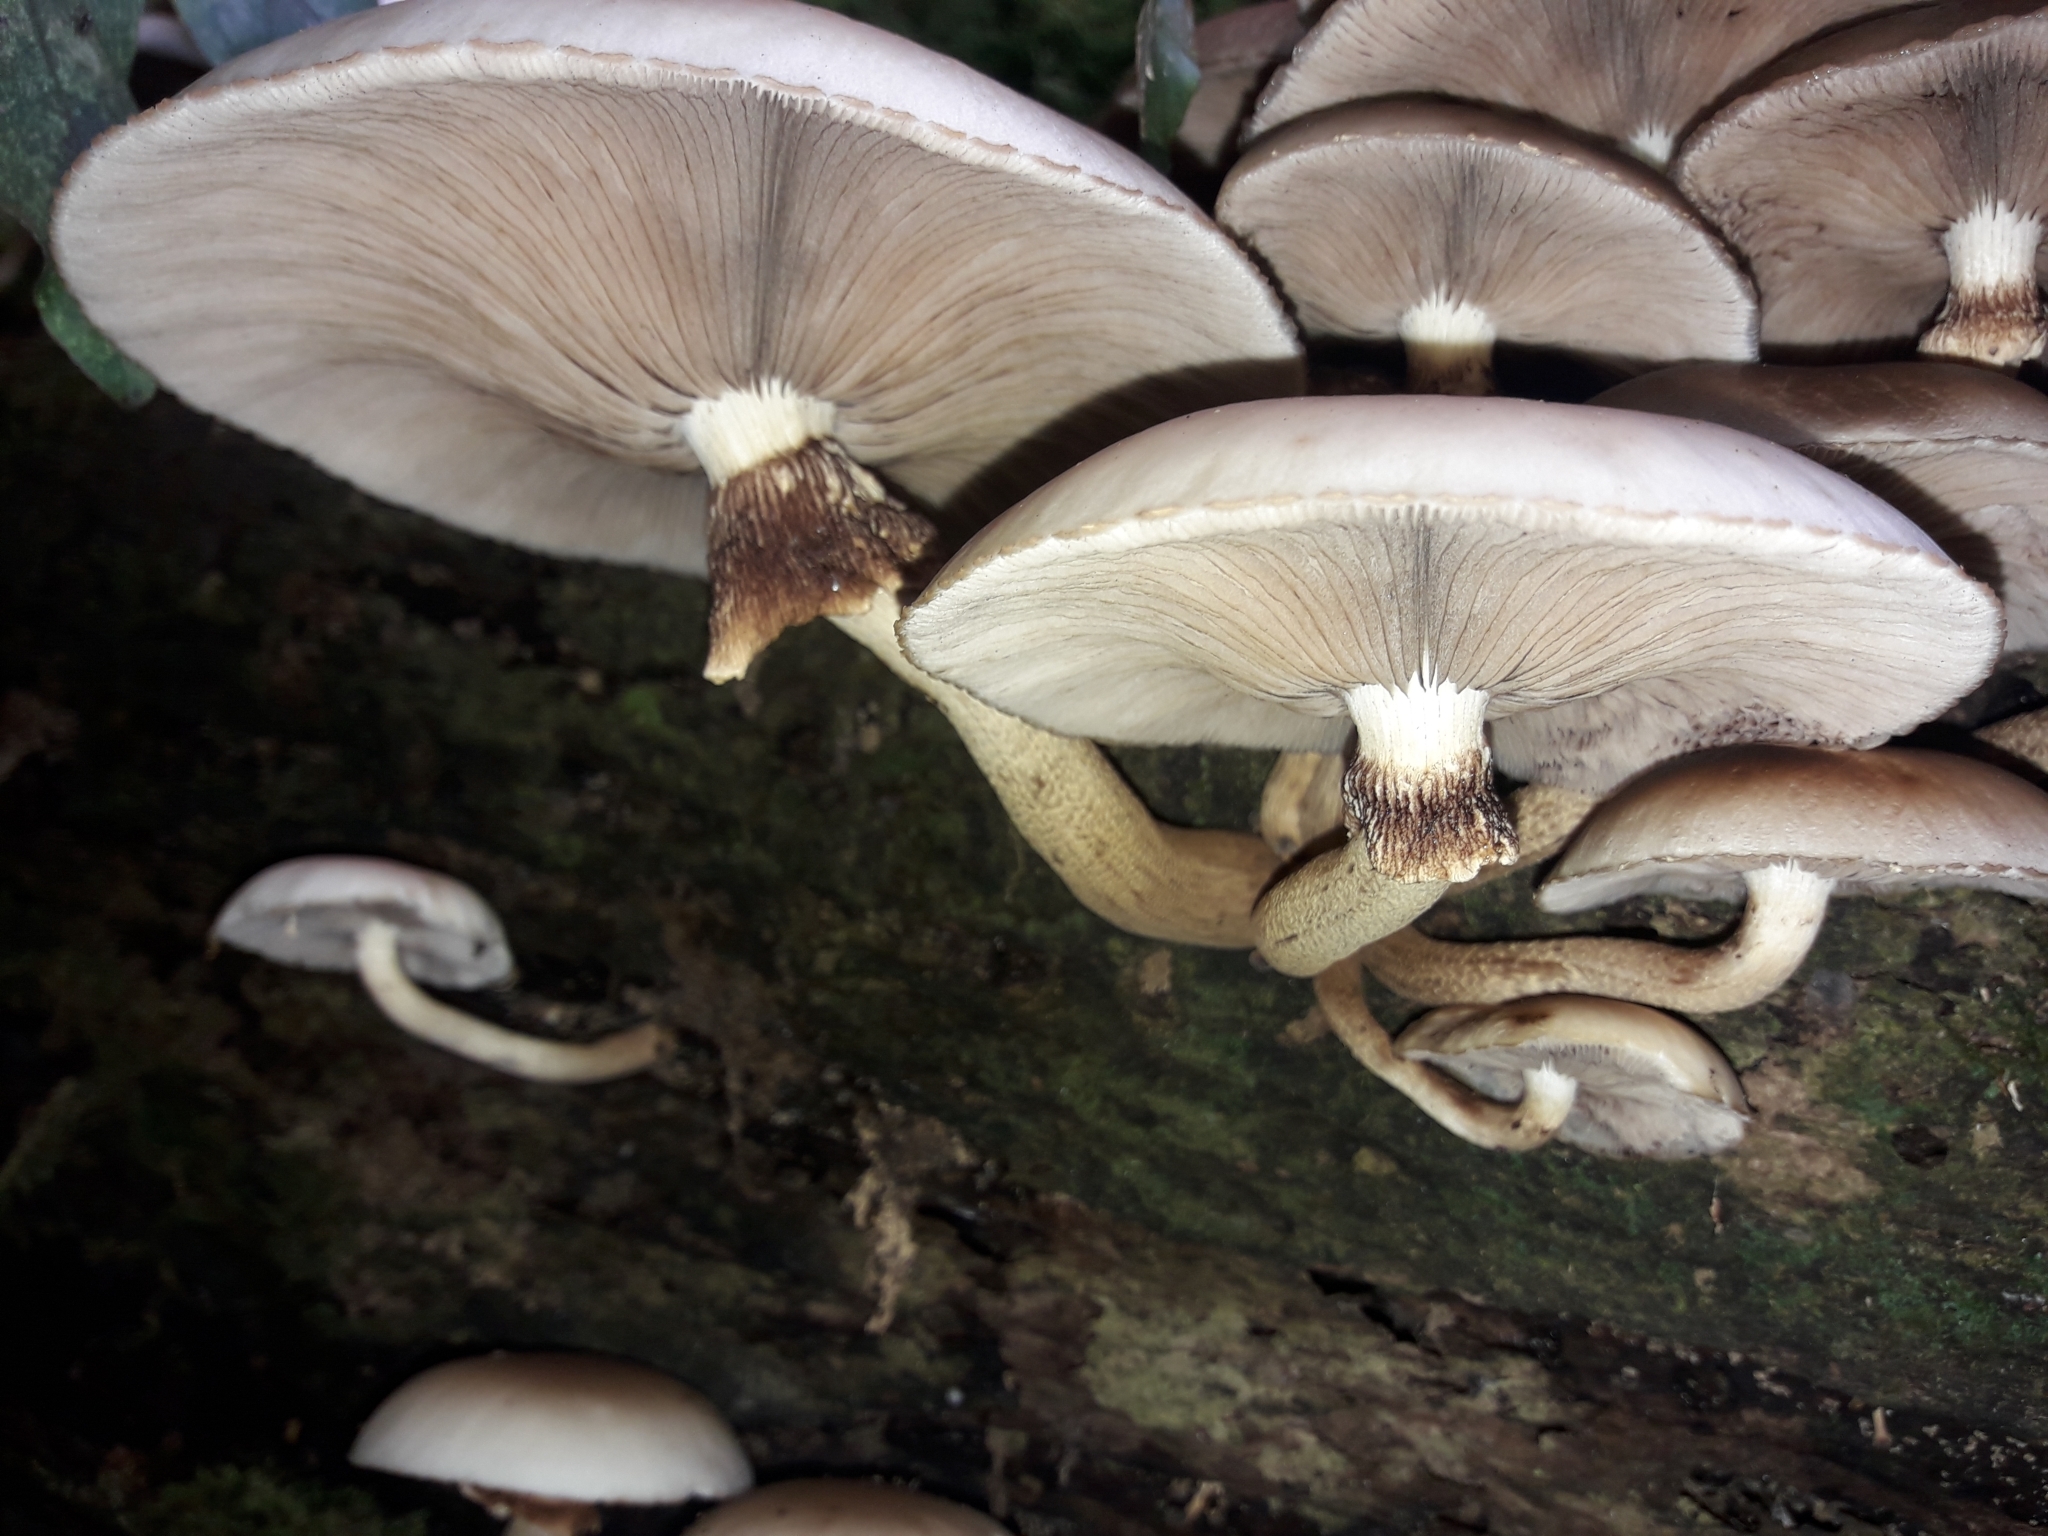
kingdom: Fungi
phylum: Basidiomycota
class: Agaricomycetes
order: Agaricales
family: Tubariaceae
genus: Cyclocybe
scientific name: Cyclocybe parasitica
